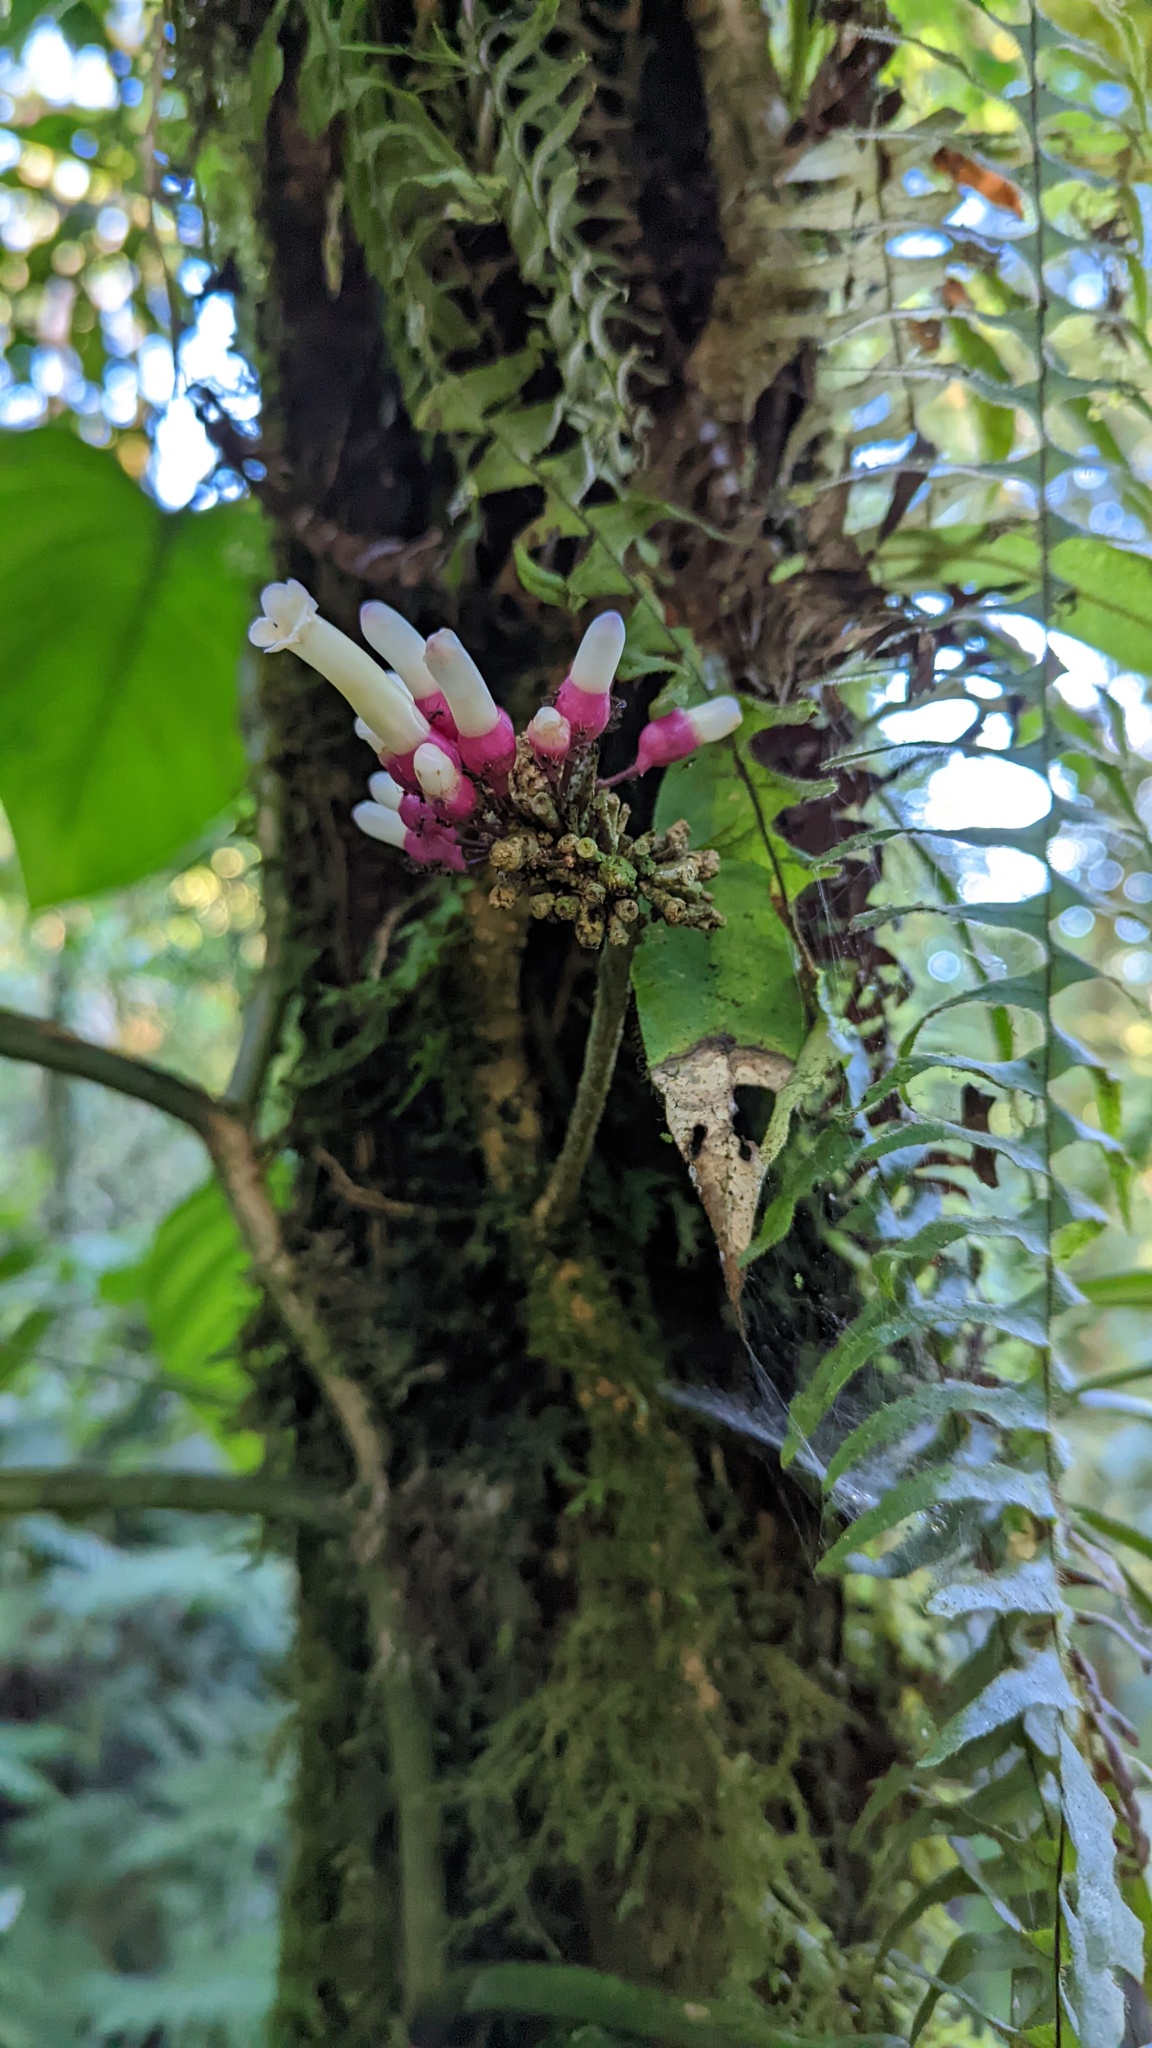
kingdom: Plantae
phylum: Tracheophyta
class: Magnoliopsida
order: Lamiales
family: Schlegeliaceae
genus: Schlegelia
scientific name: Schlegelia fastigiata
